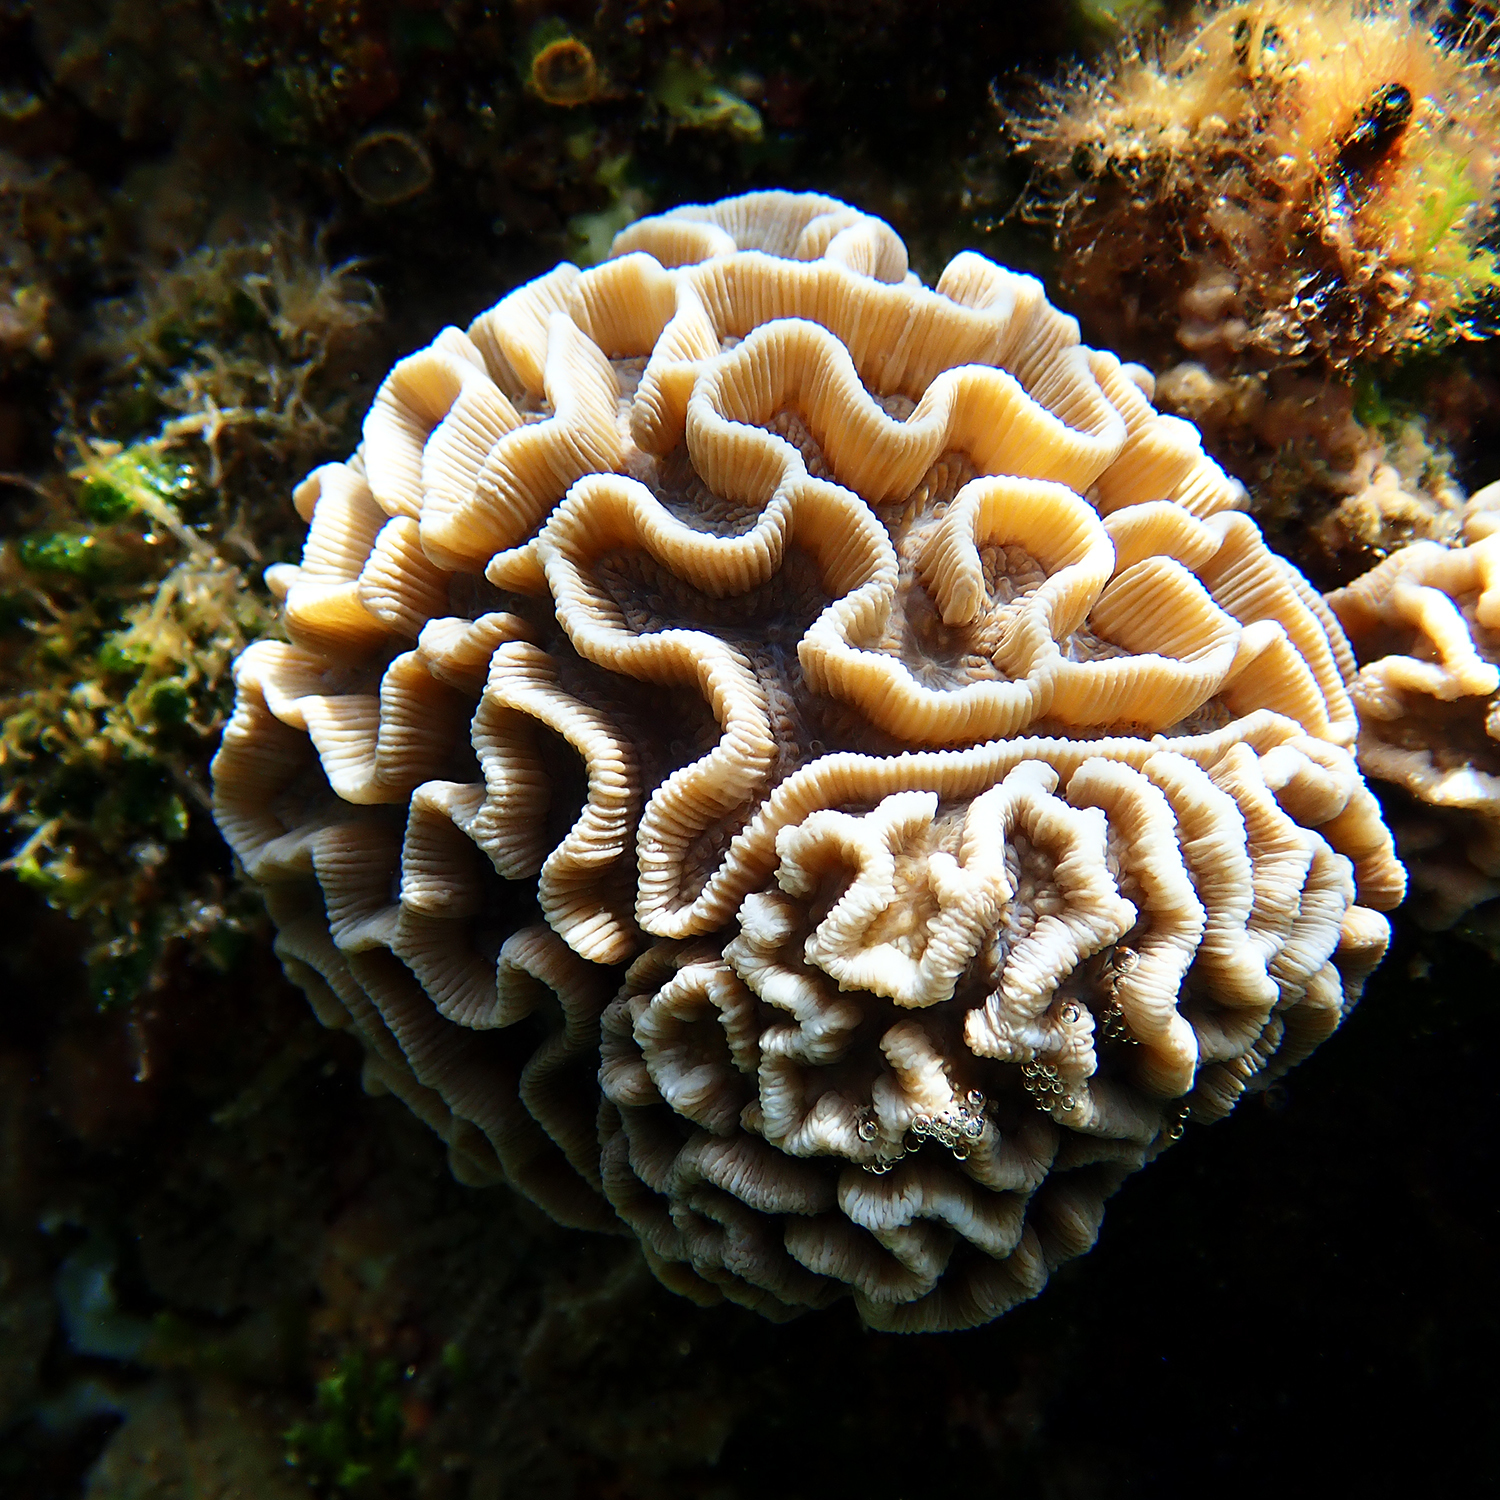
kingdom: Animalia
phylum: Cnidaria
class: Anthozoa
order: Scleractinia
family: Merulinidae
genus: Paragoniastrea
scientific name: Paragoniastrea australensis
